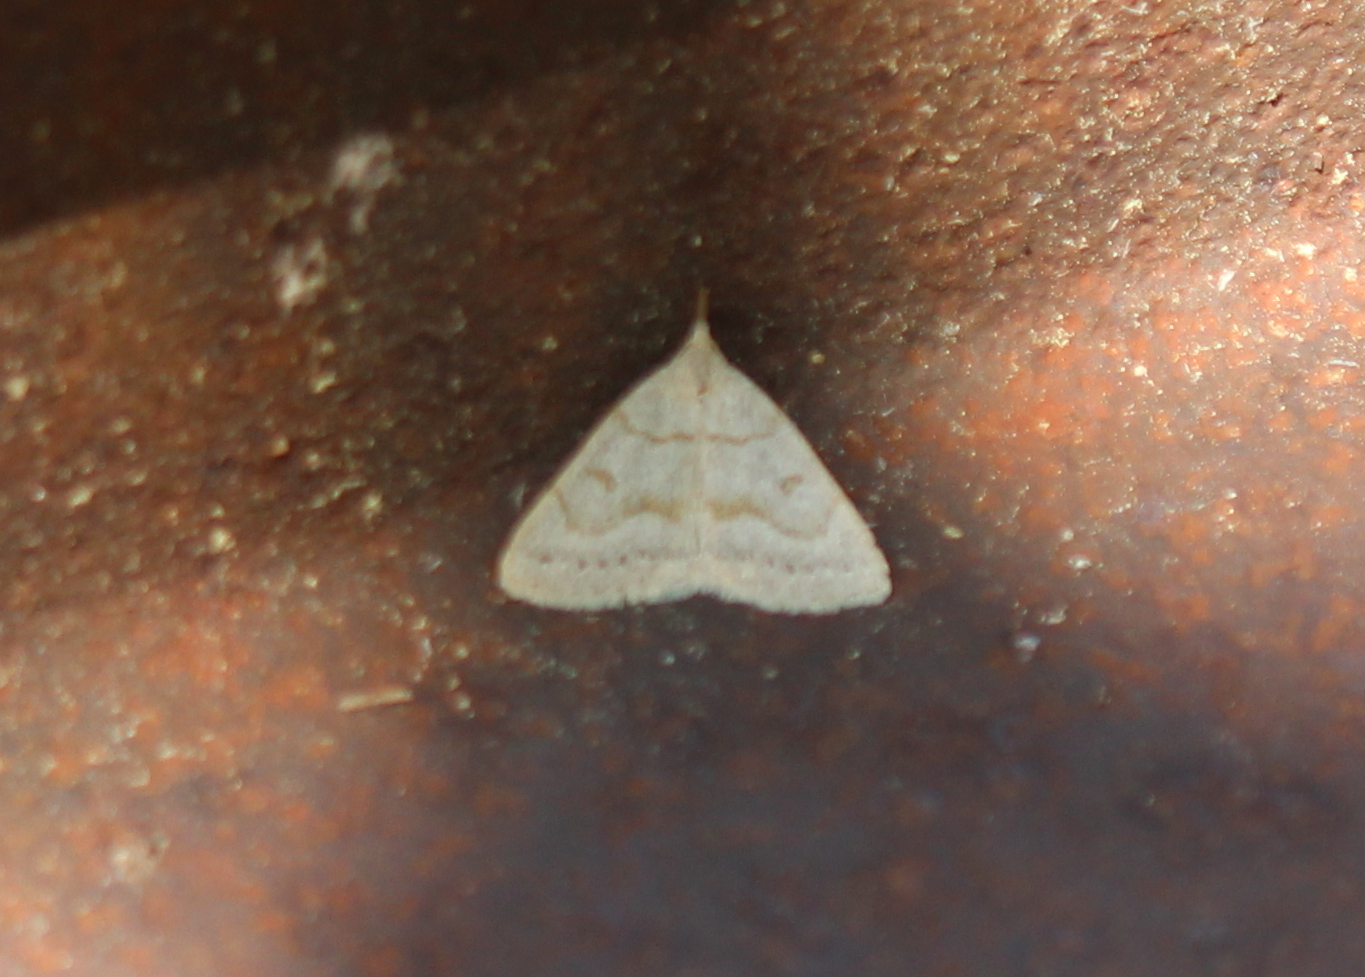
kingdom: Animalia
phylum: Arthropoda
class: Insecta
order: Lepidoptera
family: Erebidae
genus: Macrochilo
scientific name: Macrochilo morbidalis
